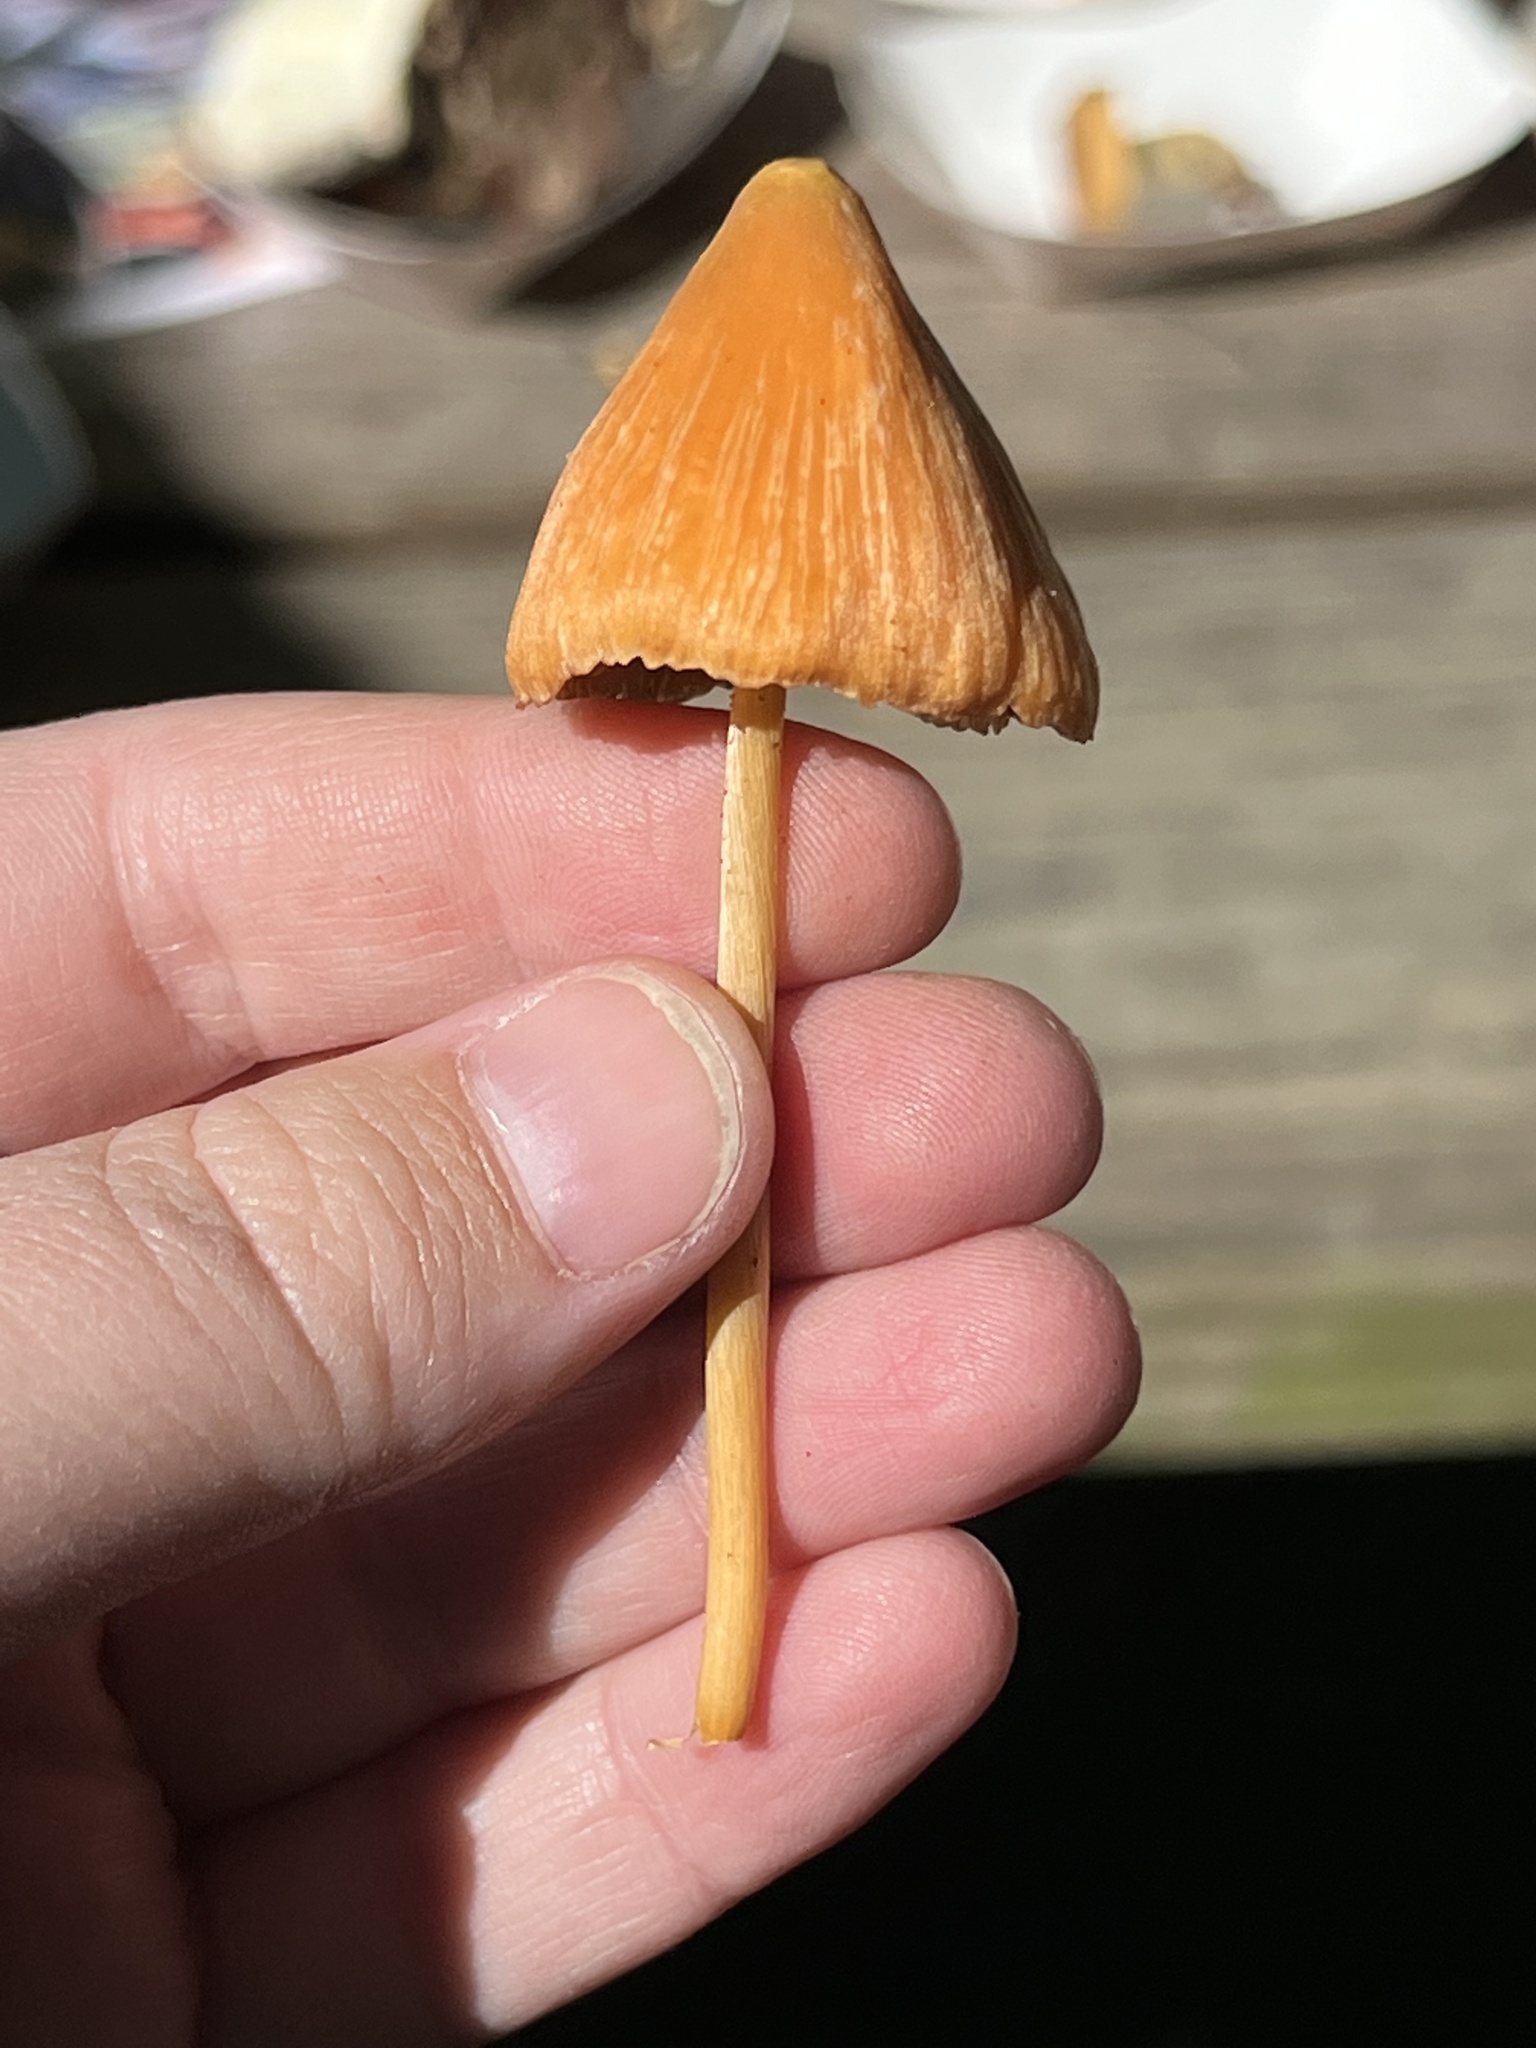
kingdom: Fungi
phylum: Basidiomycota
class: Agaricomycetes
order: Agaricales
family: Entolomataceae
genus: Entoloma
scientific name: Entoloma quadratum
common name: Salmon pinkgill
